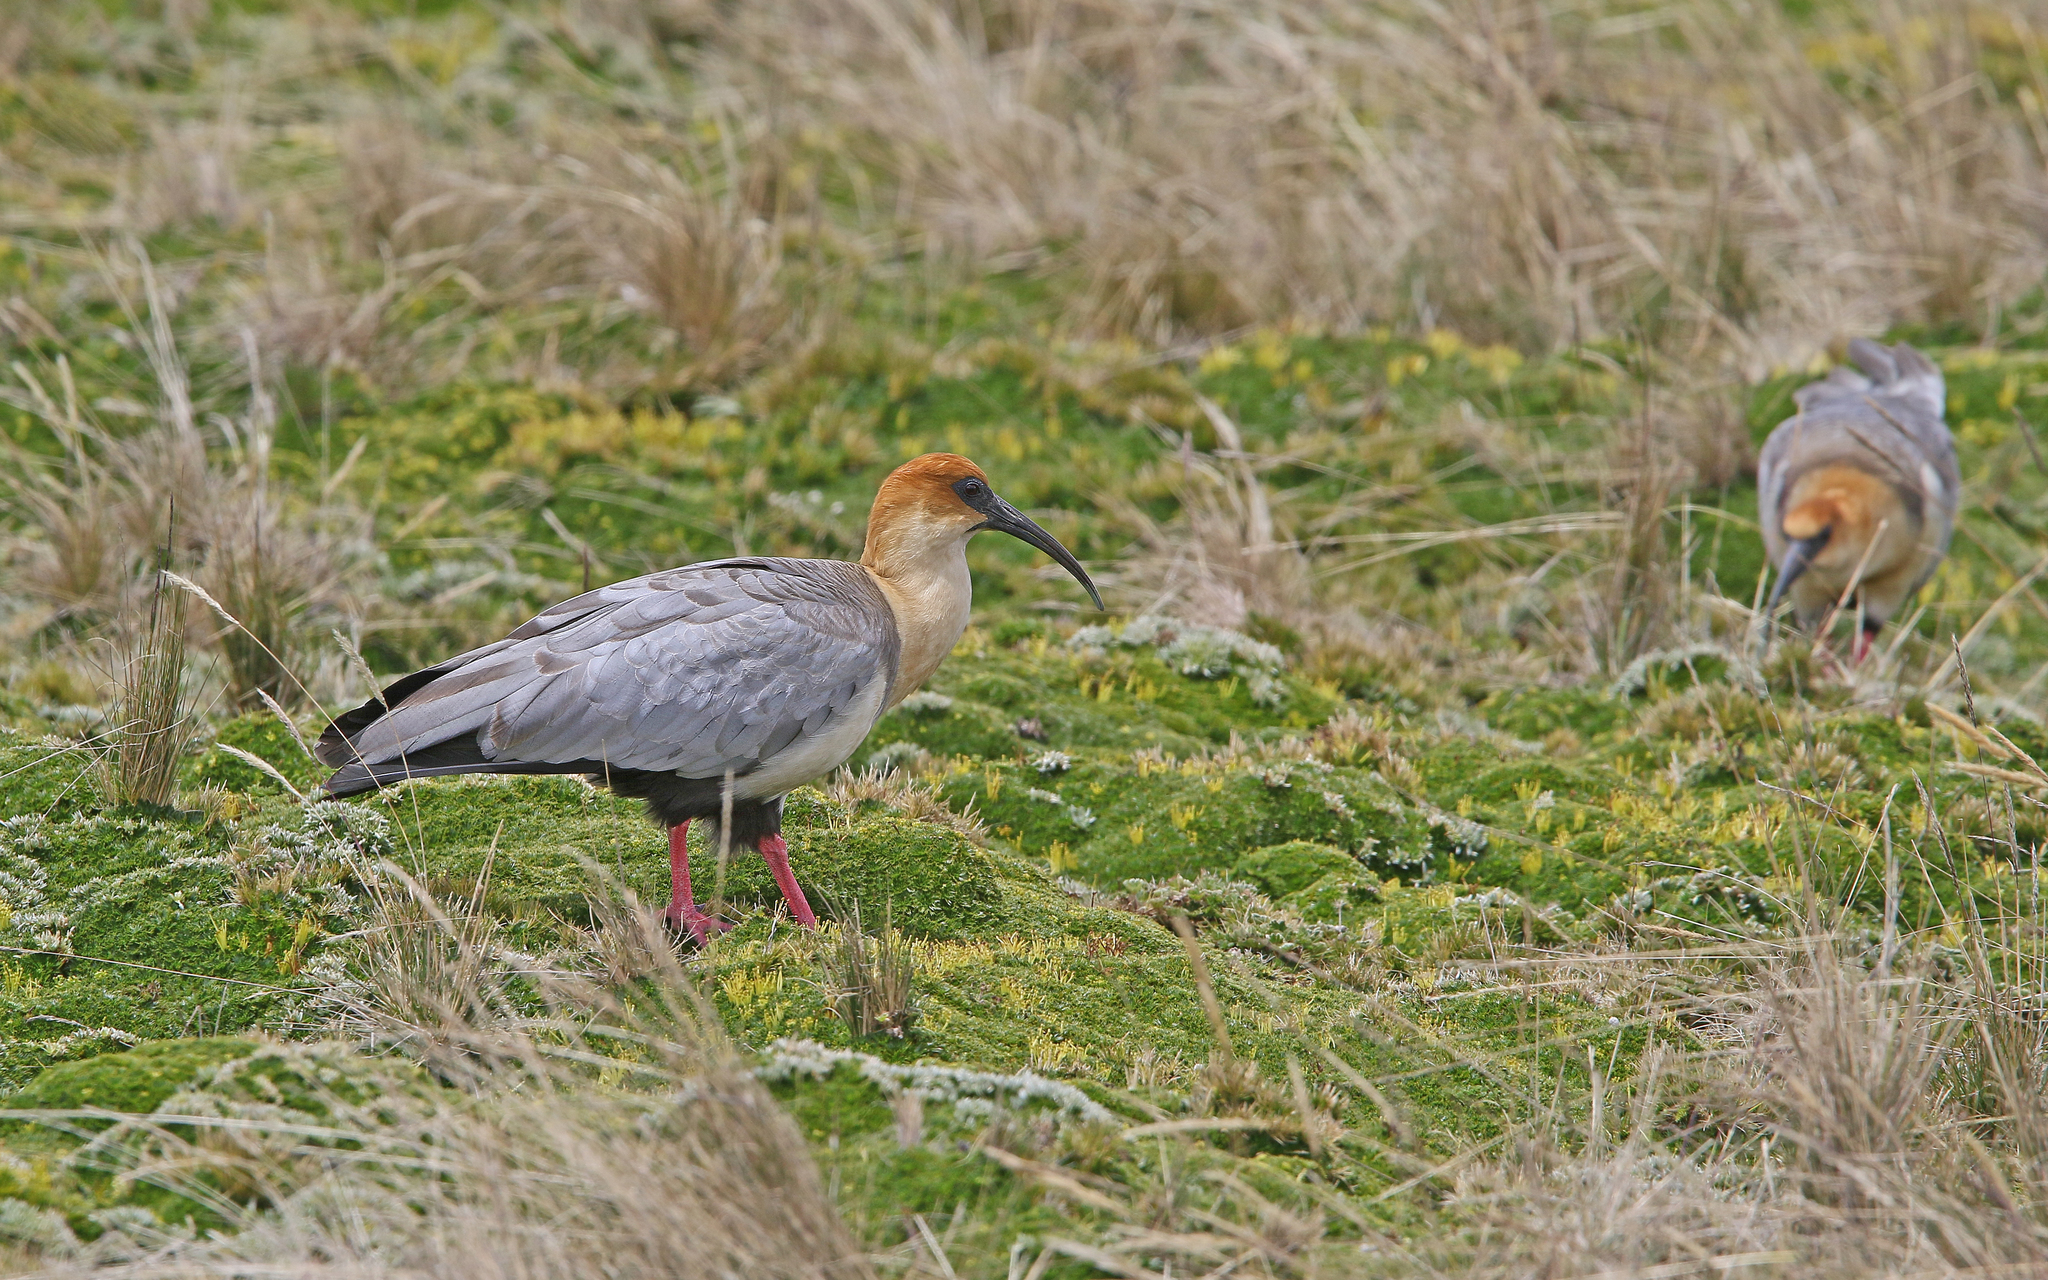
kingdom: Animalia
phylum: Chordata
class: Aves
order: Pelecaniformes
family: Threskiornithidae
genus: Theristicus
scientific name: Theristicus melanopis
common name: Black-faced ibis
